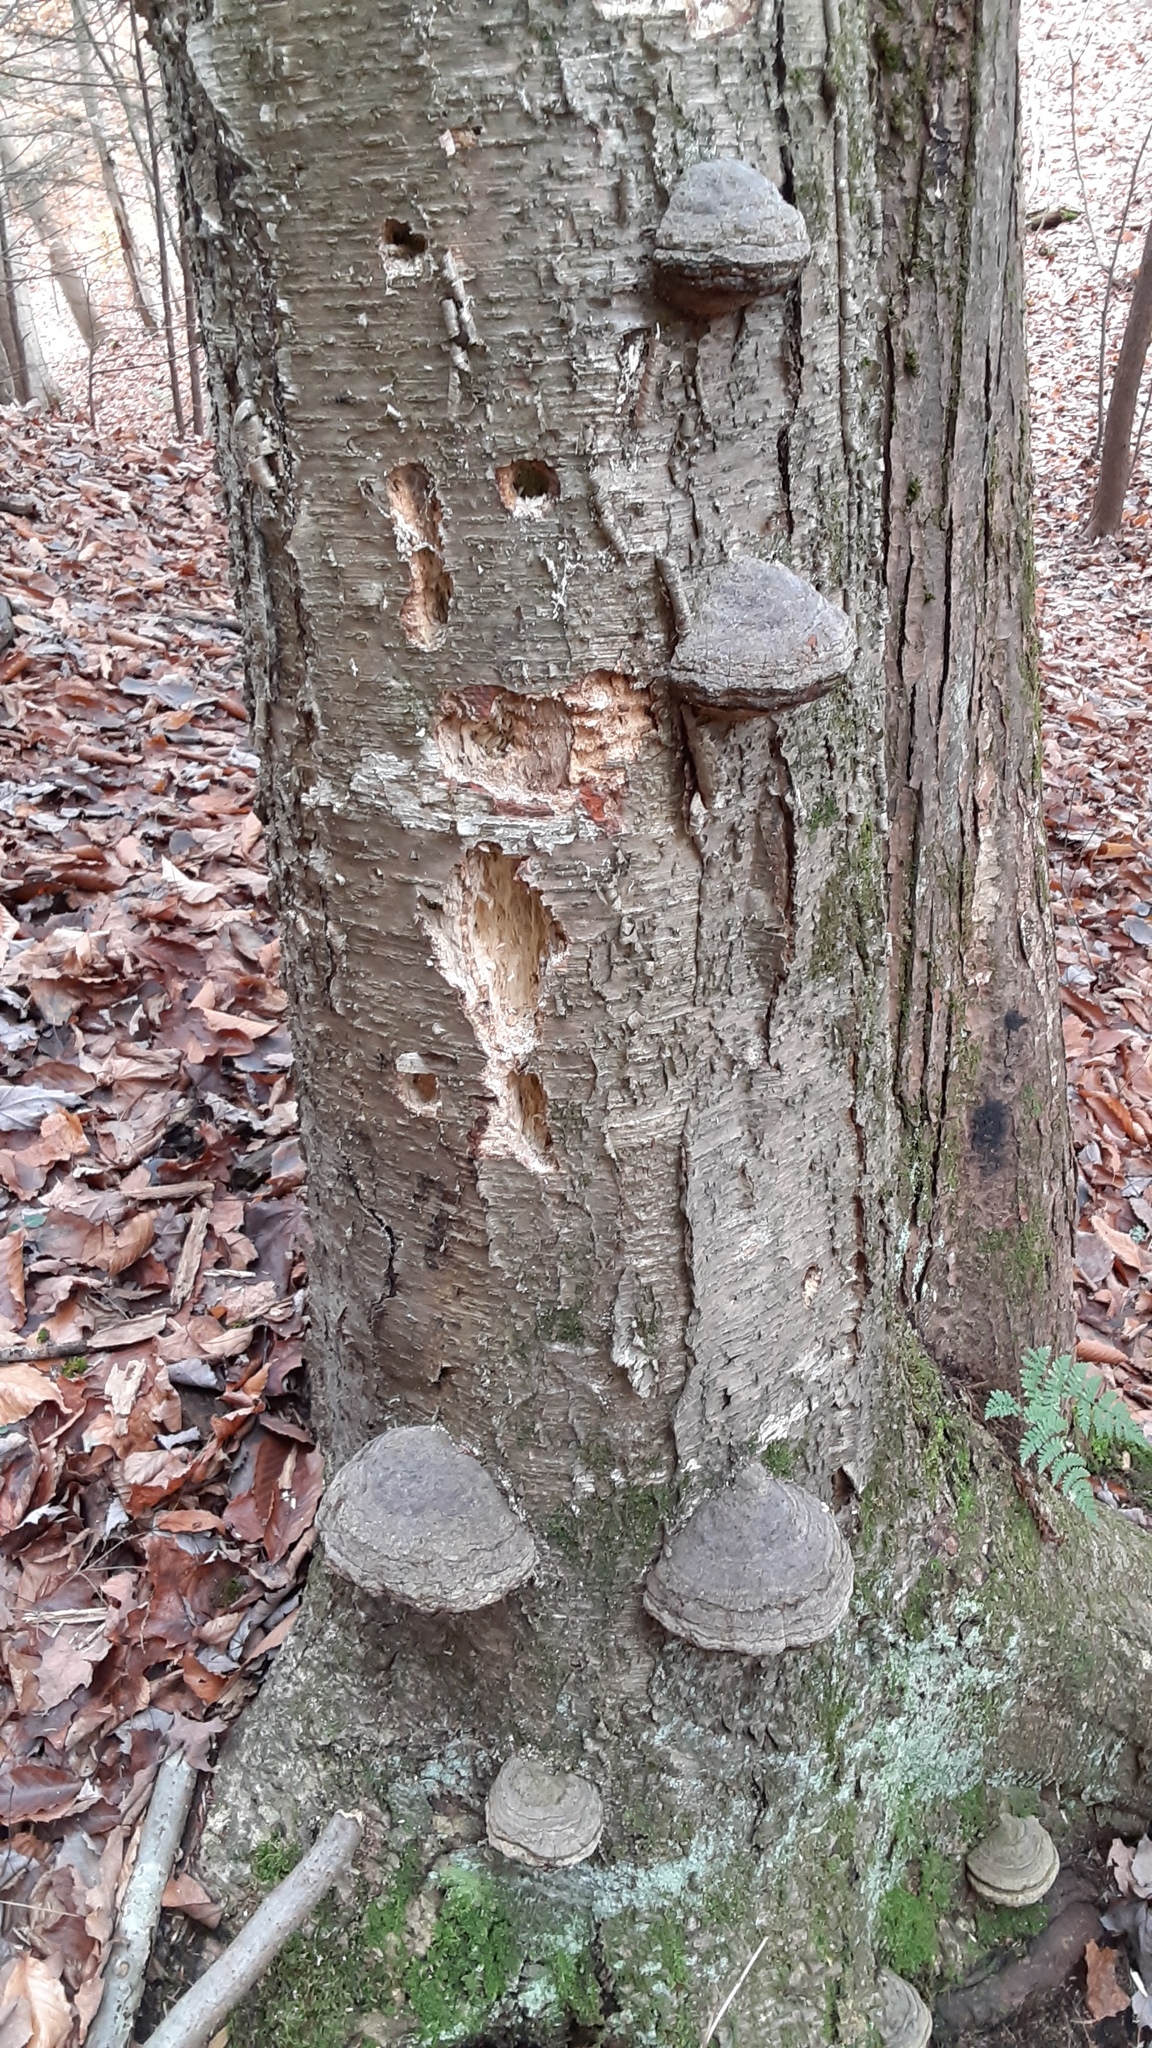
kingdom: Fungi
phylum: Basidiomycota
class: Agaricomycetes
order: Polyporales
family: Polyporaceae
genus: Fomes
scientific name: Fomes fomentarius
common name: Hoof fungus
